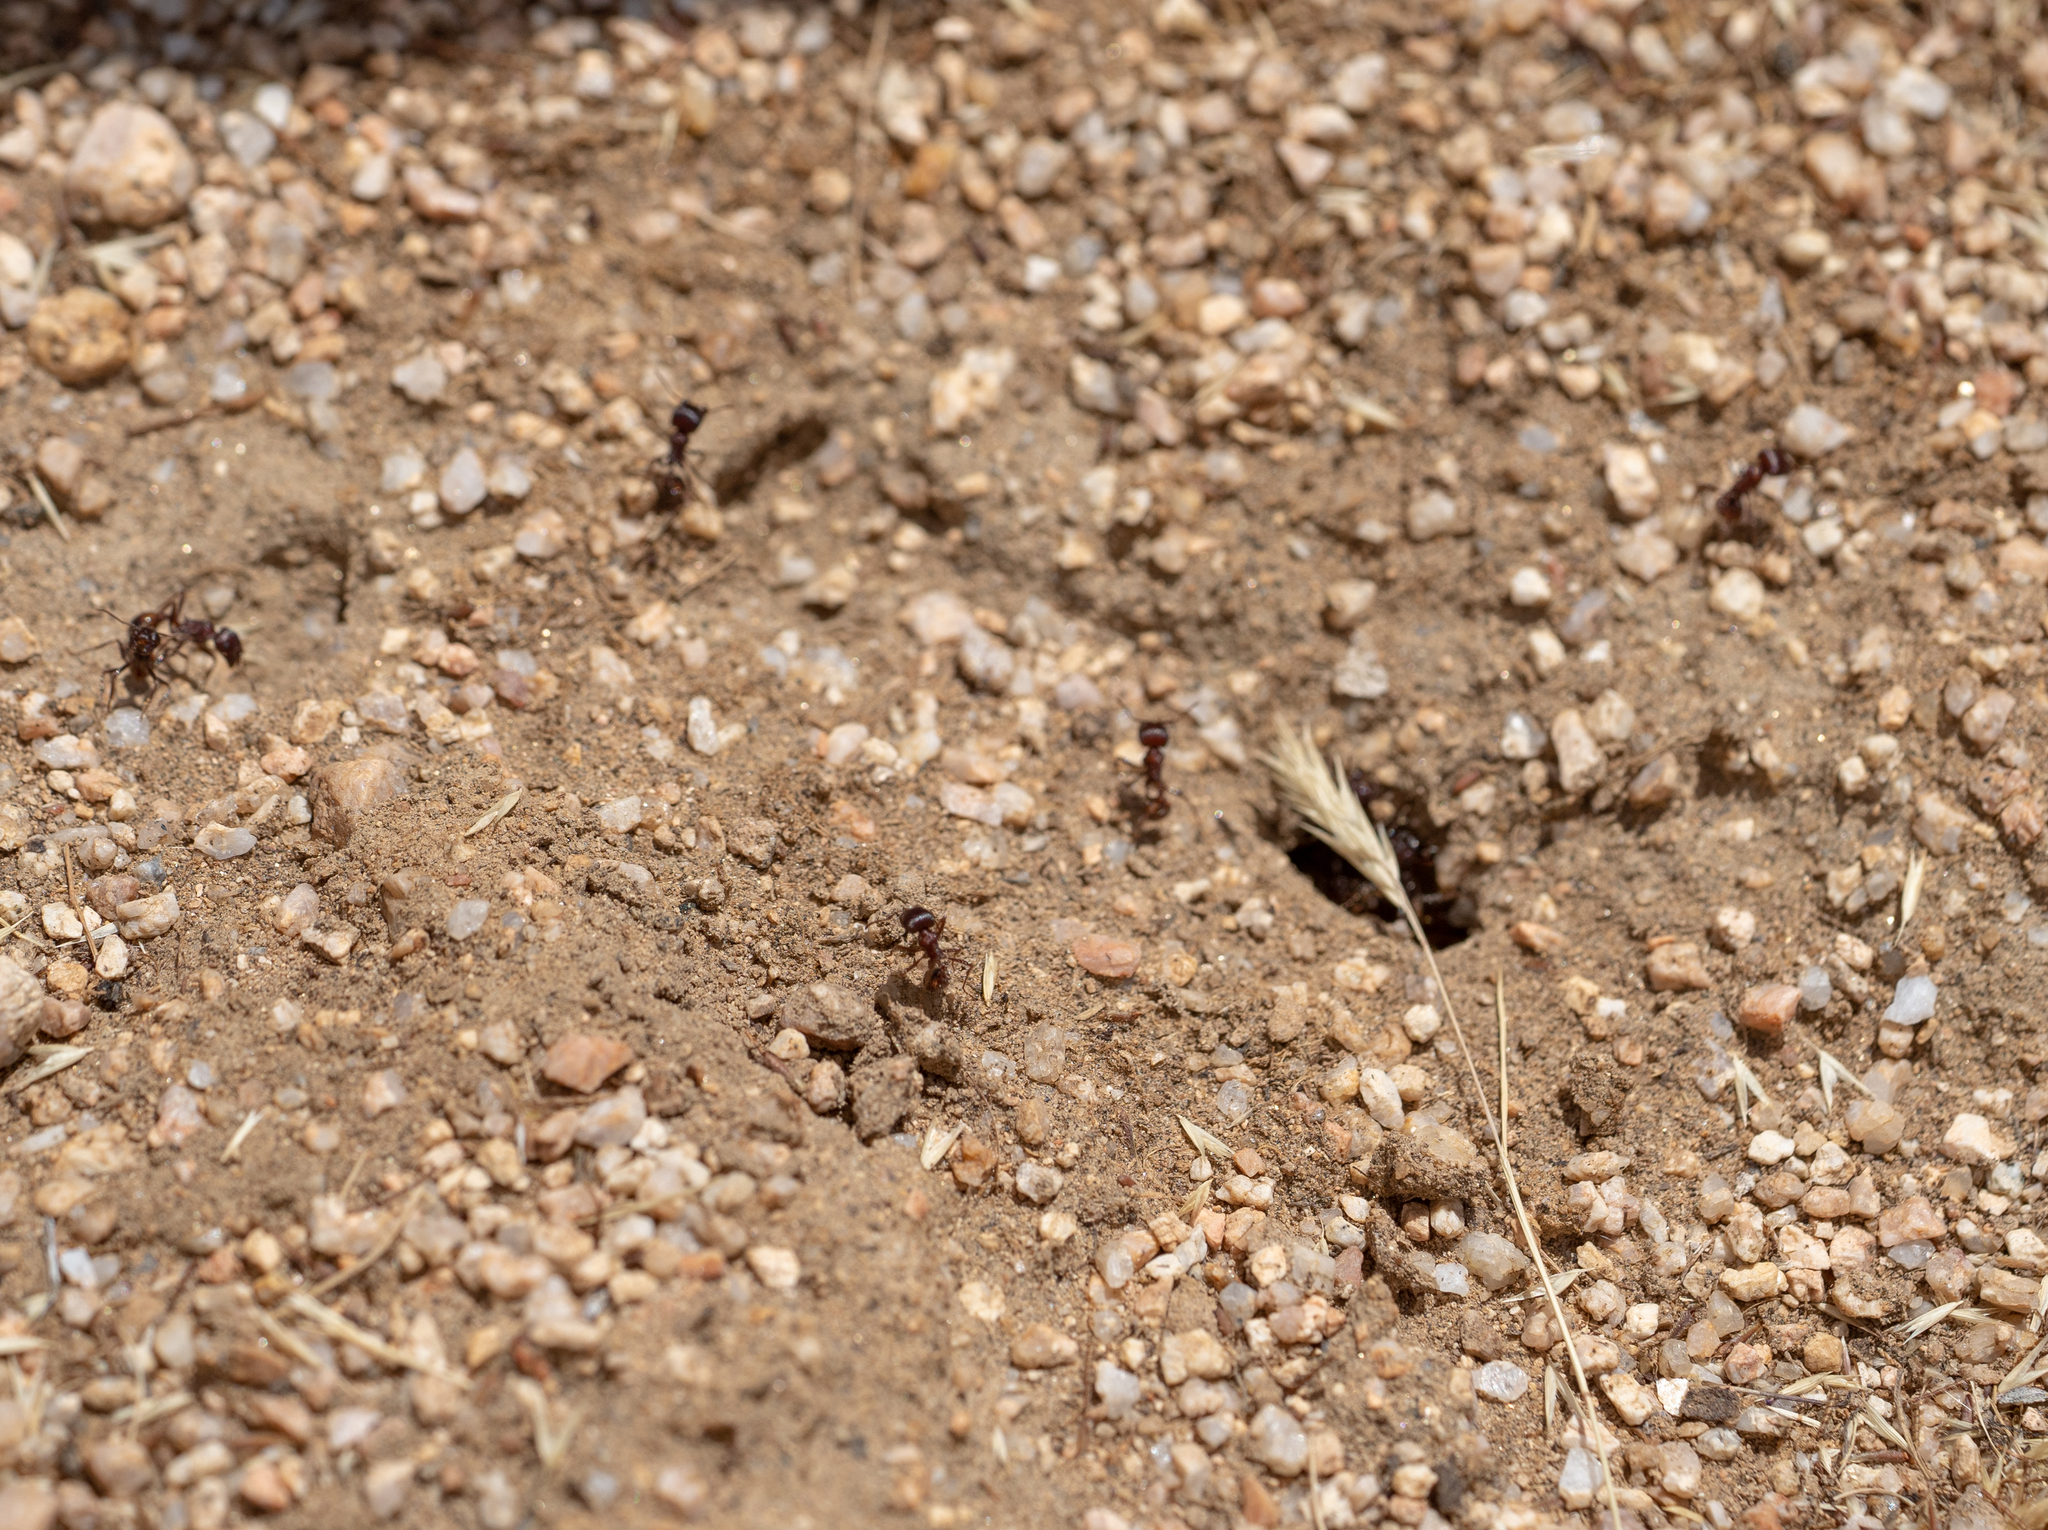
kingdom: Animalia
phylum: Arthropoda
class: Insecta
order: Hymenoptera
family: Formicidae
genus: Pogonomyrmex
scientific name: Pogonomyrmex rugosus
